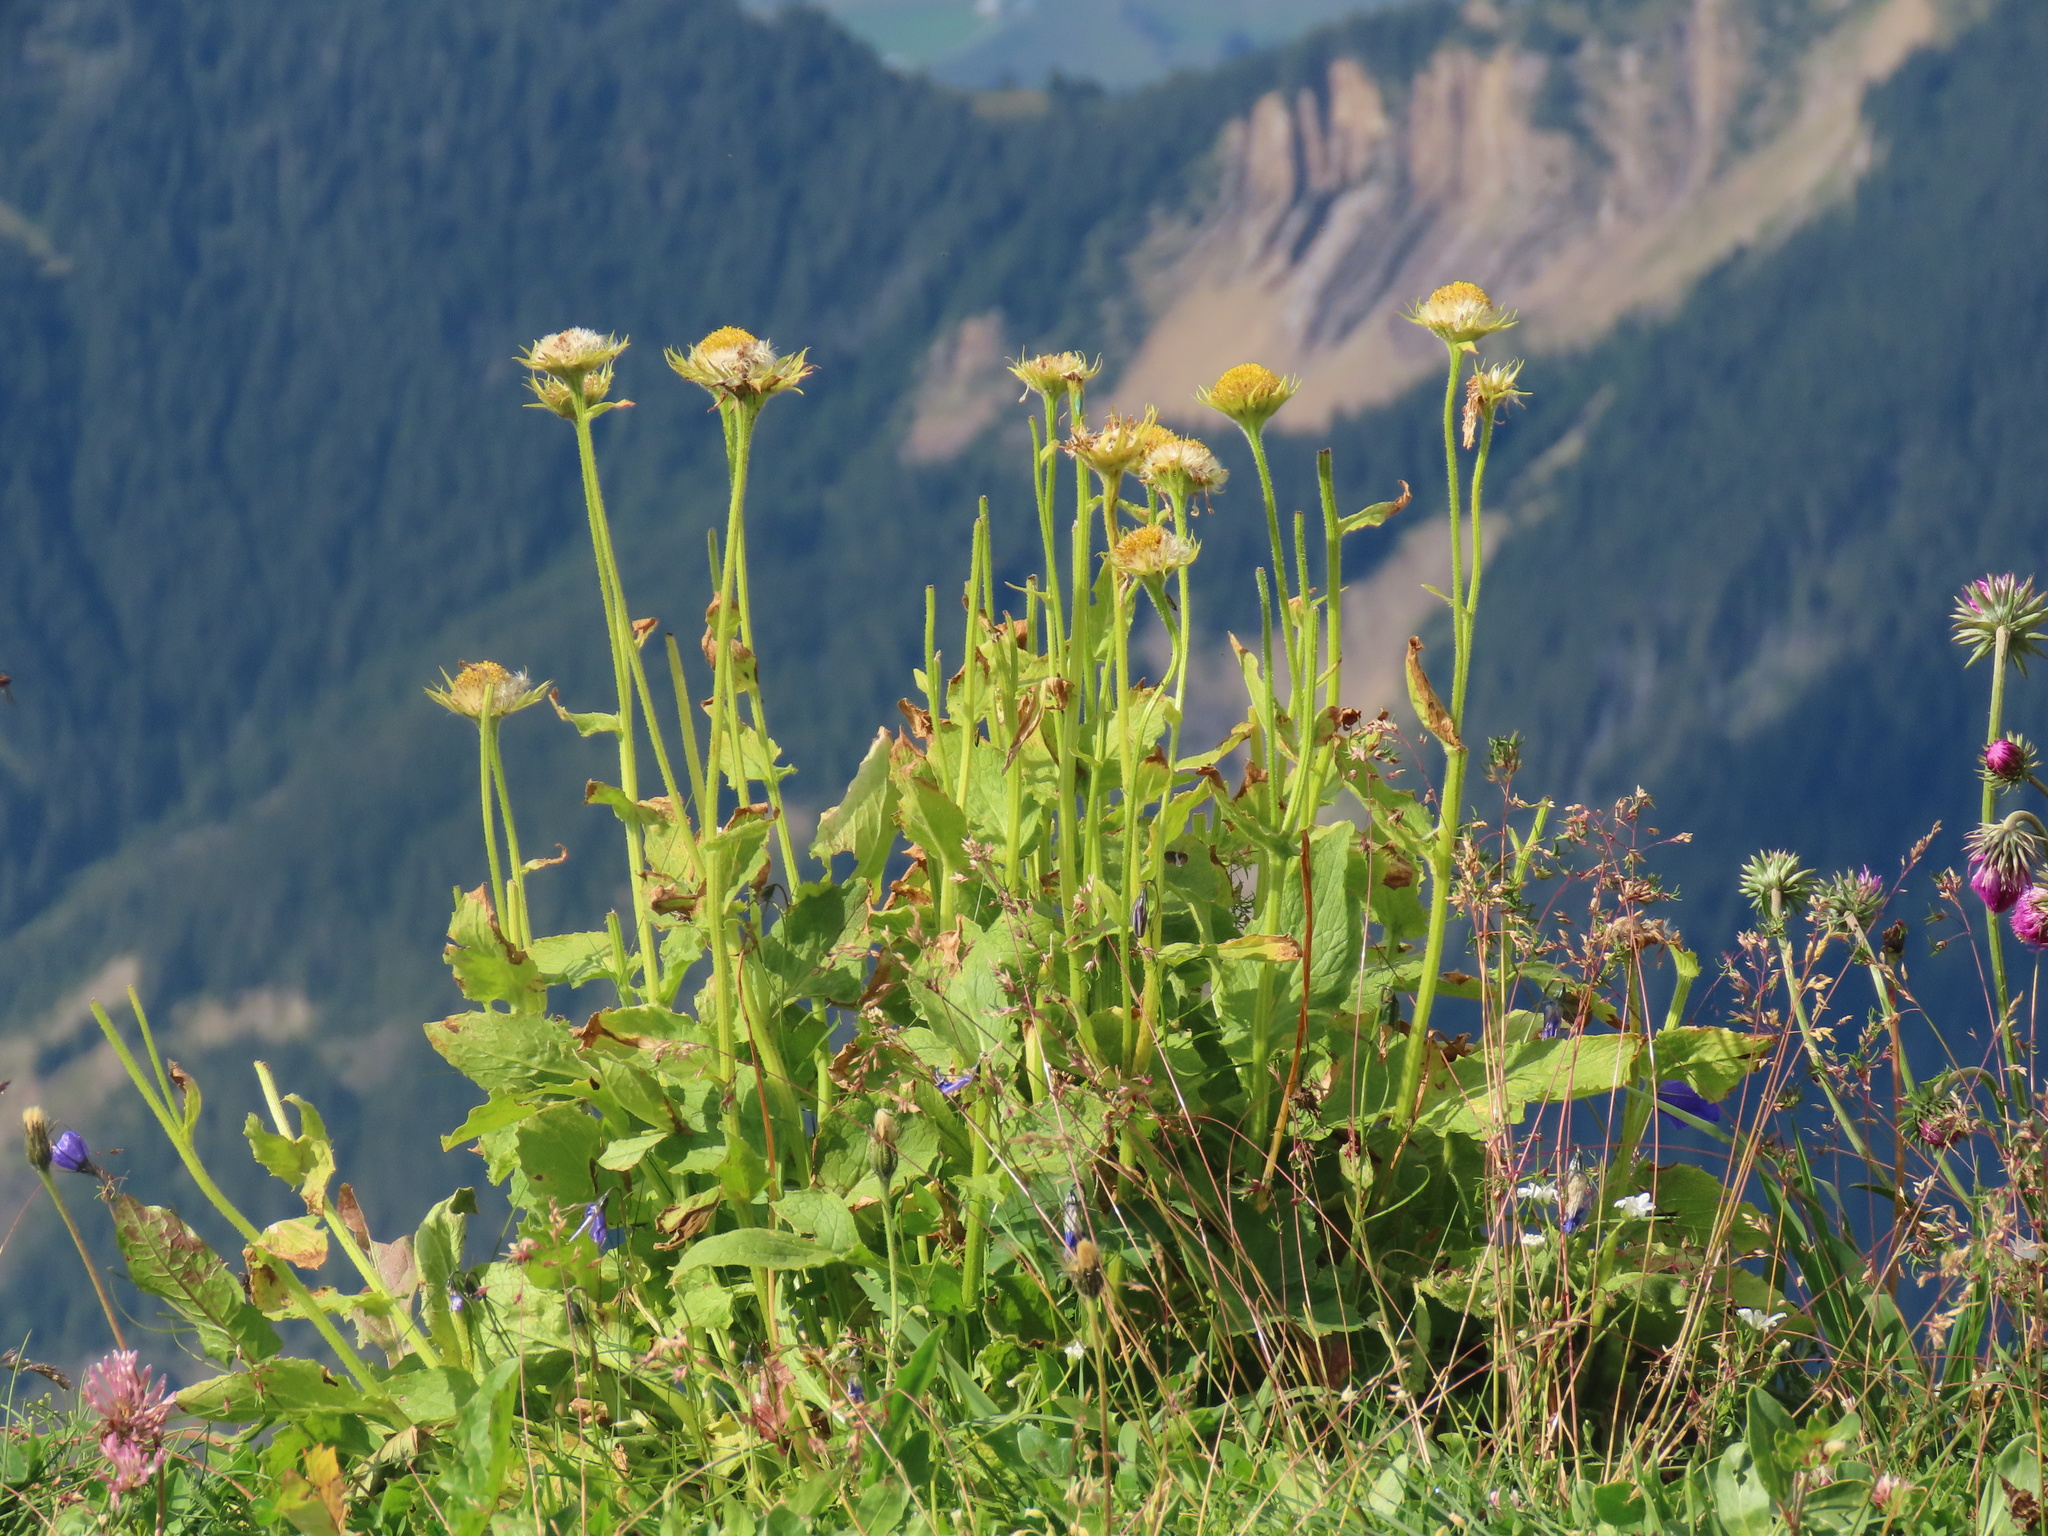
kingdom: Plantae
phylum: Tracheophyta
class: Magnoliopsida
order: Asterales
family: Asteraceae
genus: Doronicum
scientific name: Doronicum grandiflorum
